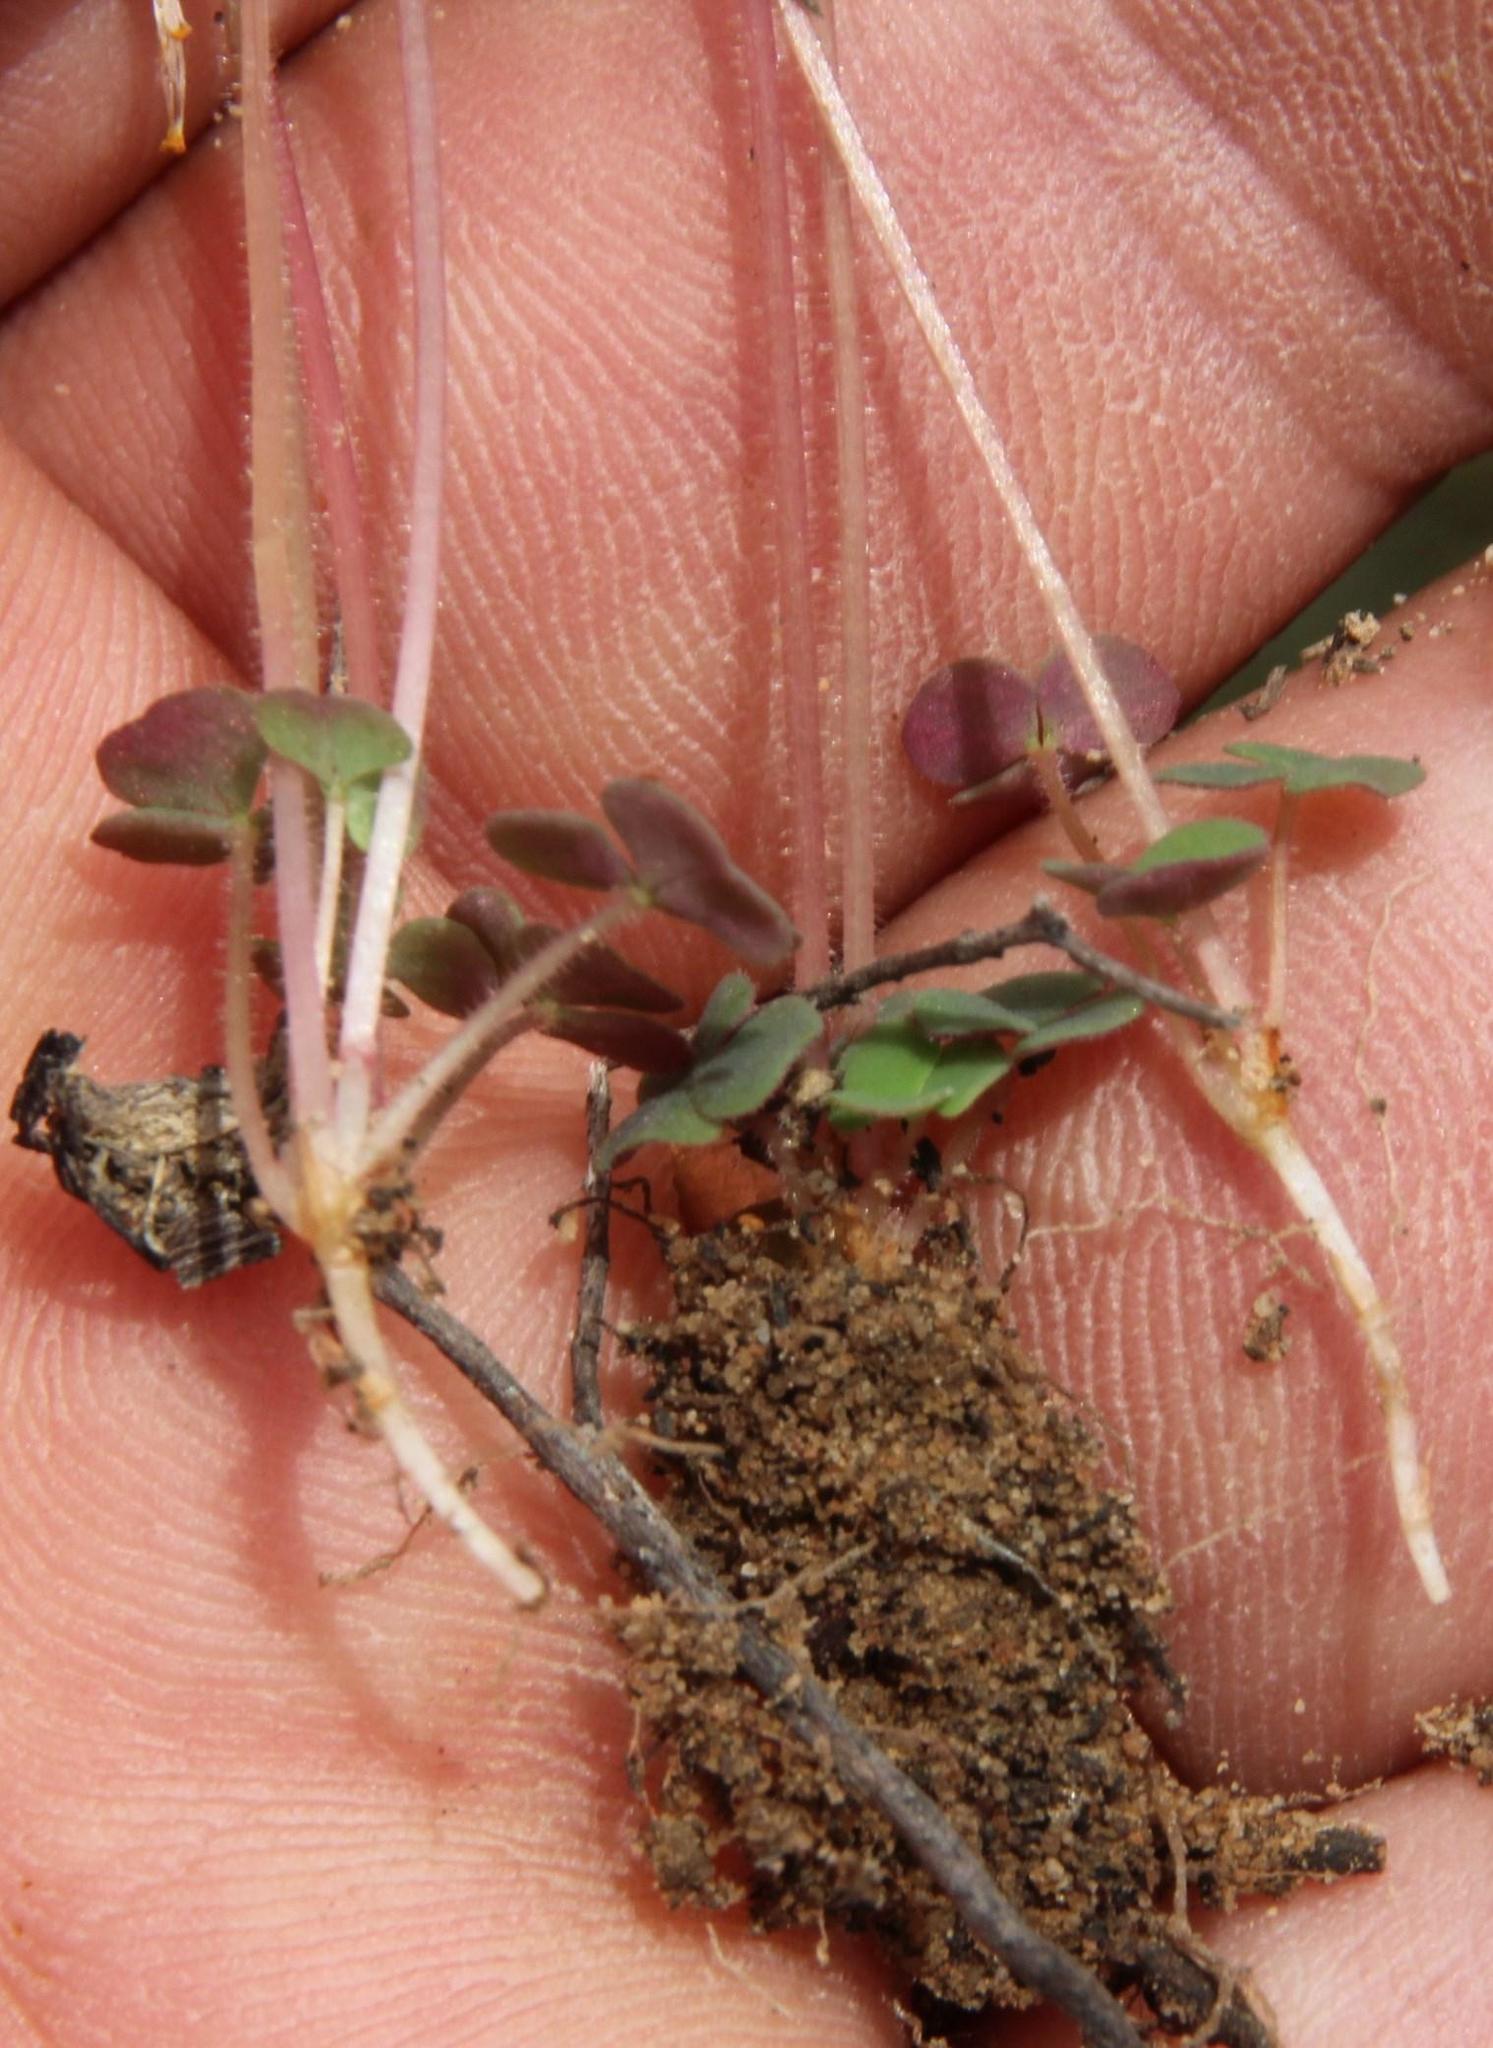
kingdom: Plantae
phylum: Tracheophyta
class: Magnoliopsida
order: Oxalidales
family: Oxalidaceae
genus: Oxalis
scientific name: Oxalis punctata
